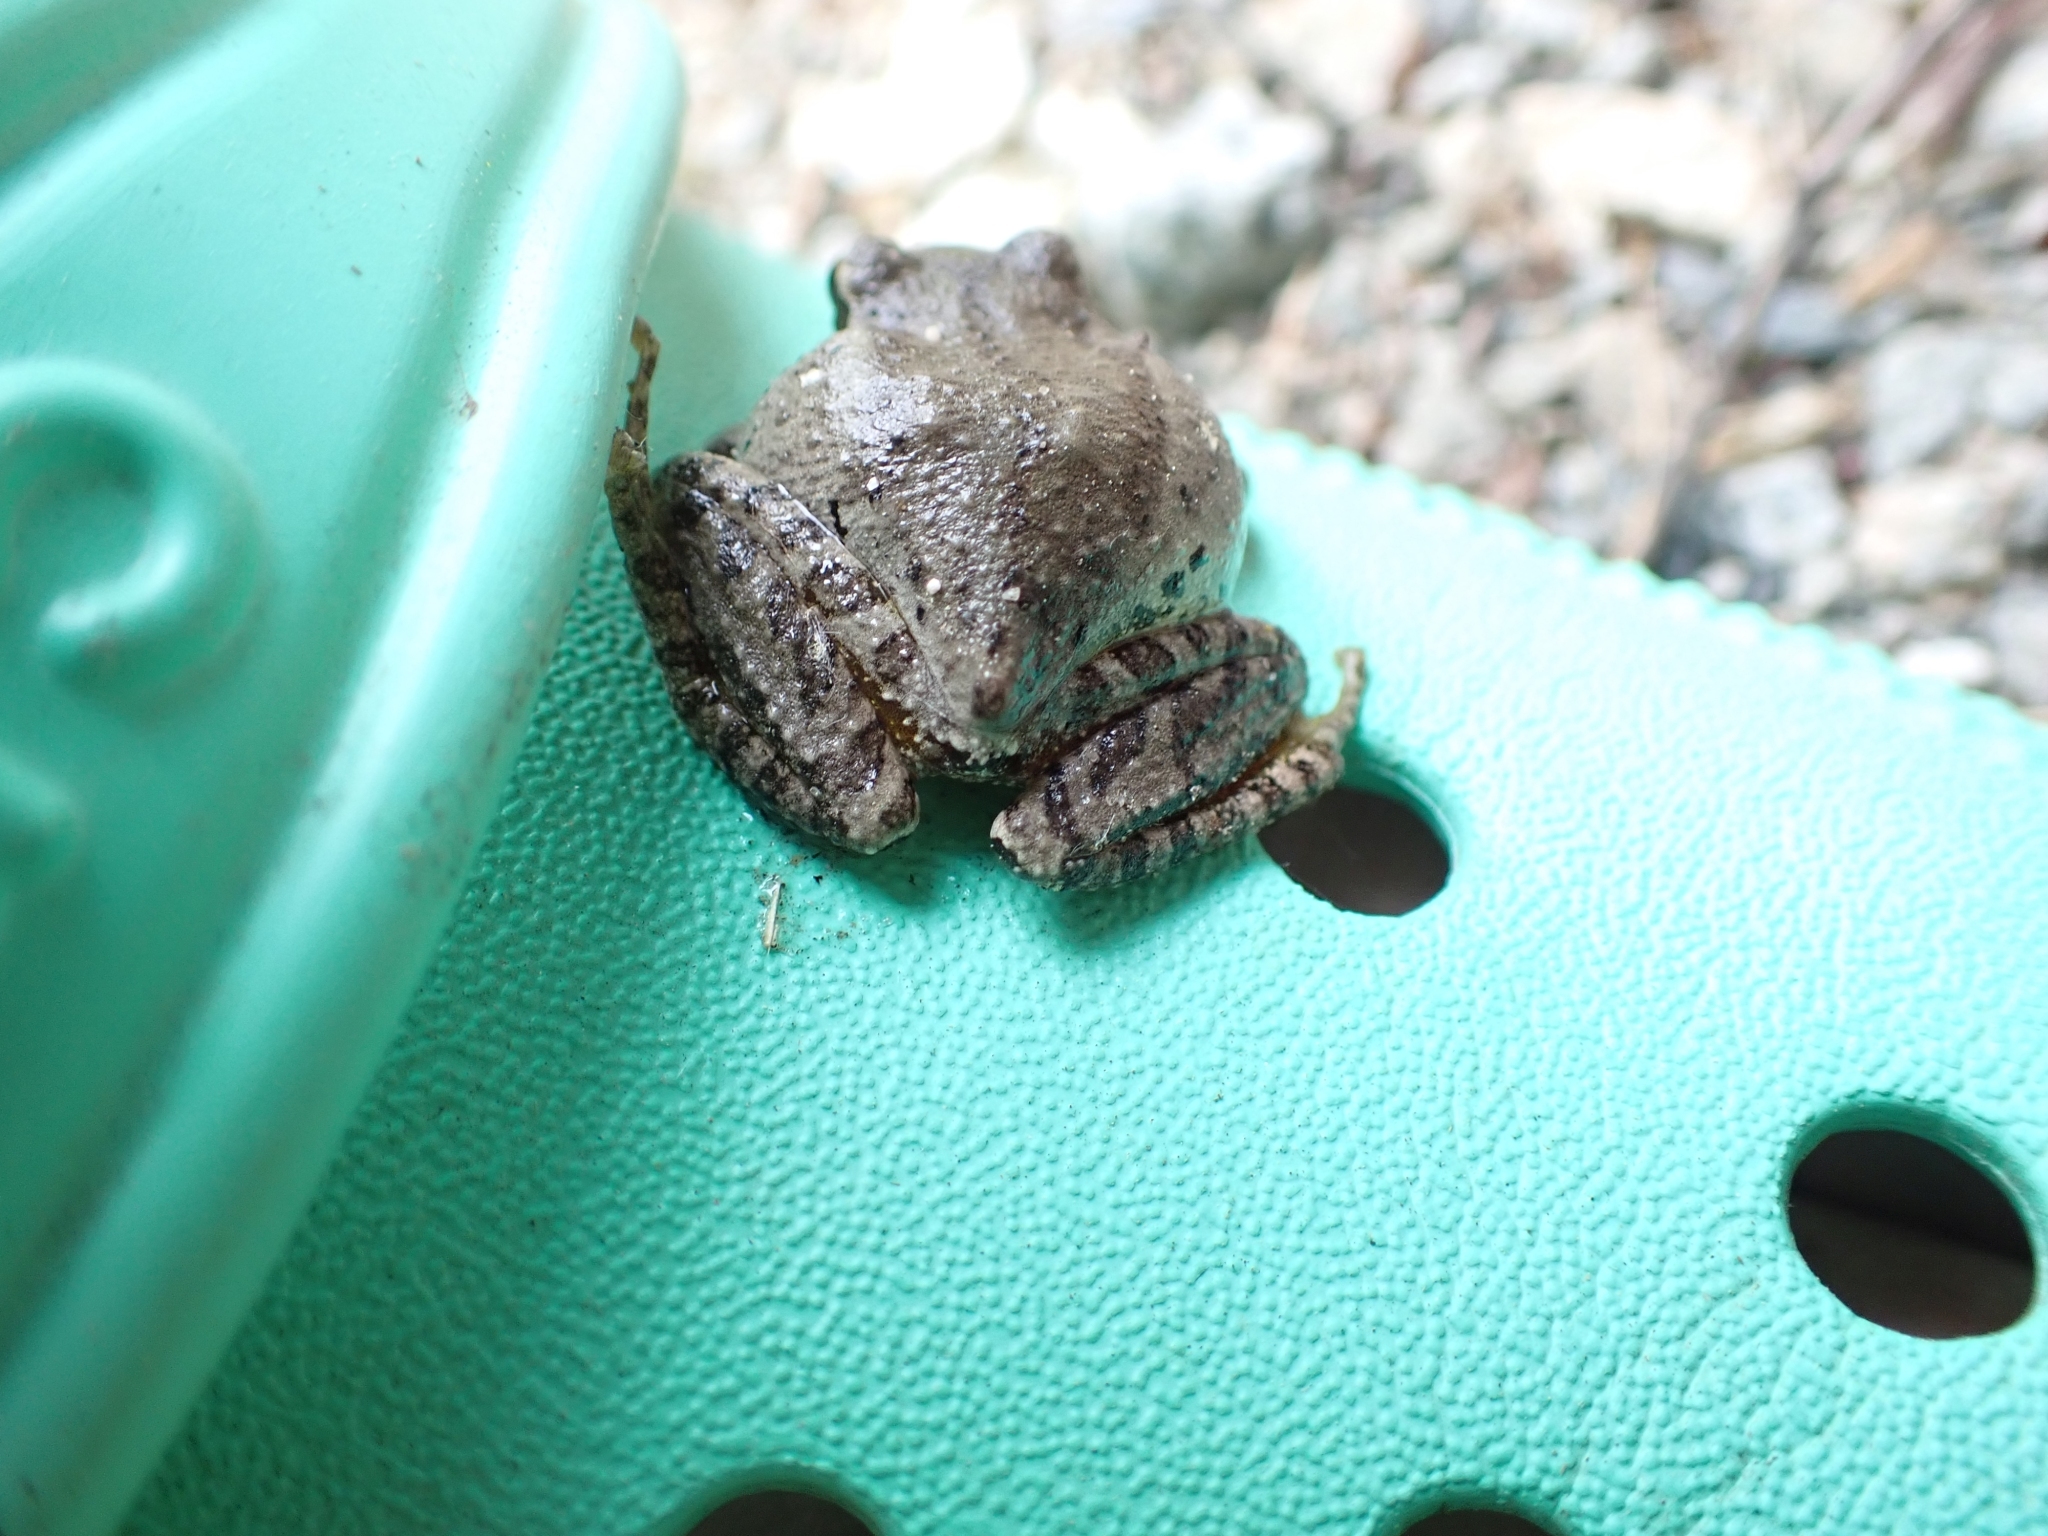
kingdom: Animalia
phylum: Chordata
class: Amphibia
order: Anura
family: Hylidae
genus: Pseudacris
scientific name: Pseudacris regilla
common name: Pacific chorus frog
